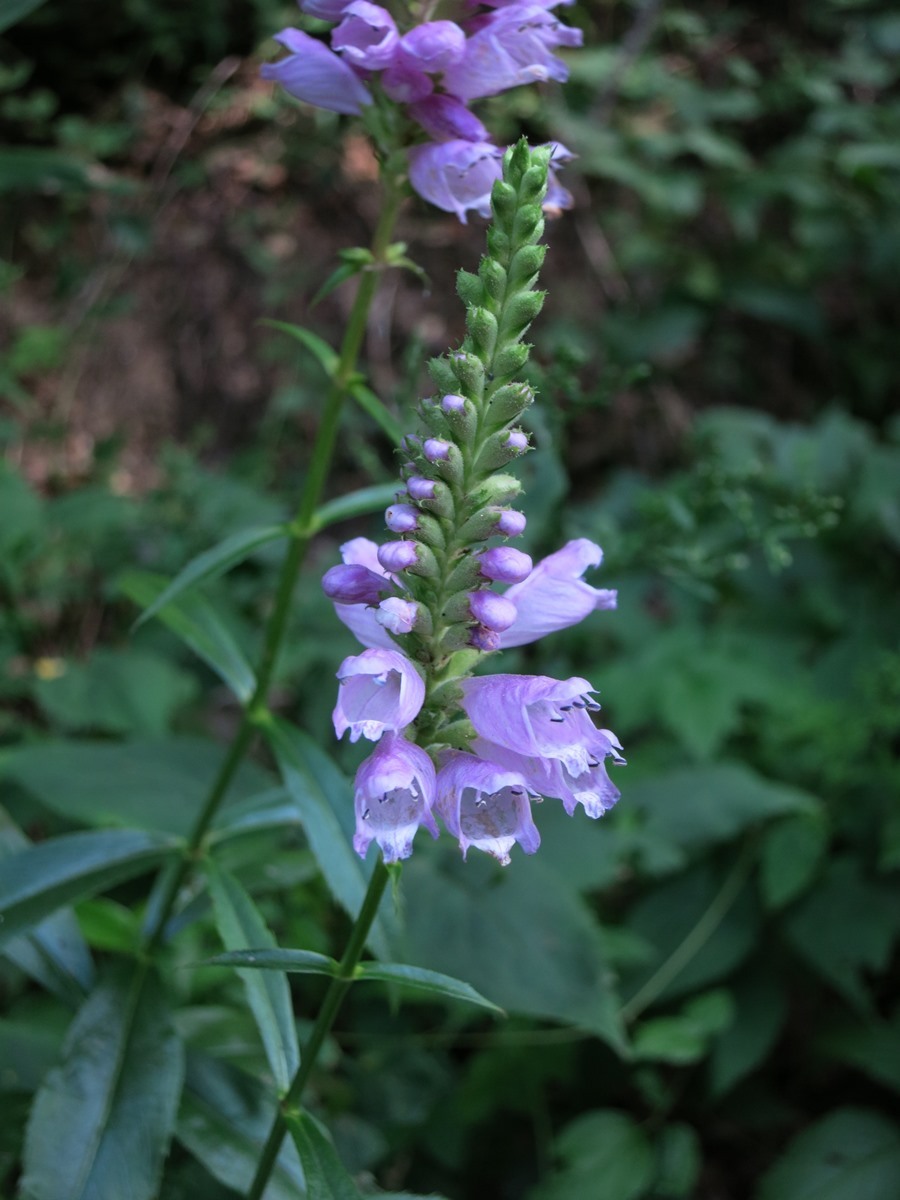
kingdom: Plantae
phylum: Tracheophyta
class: Magnoliopsida
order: Lamiales
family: Lamiaceae
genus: Physostegia
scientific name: Physostegia virginiana
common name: Obedient-plant
